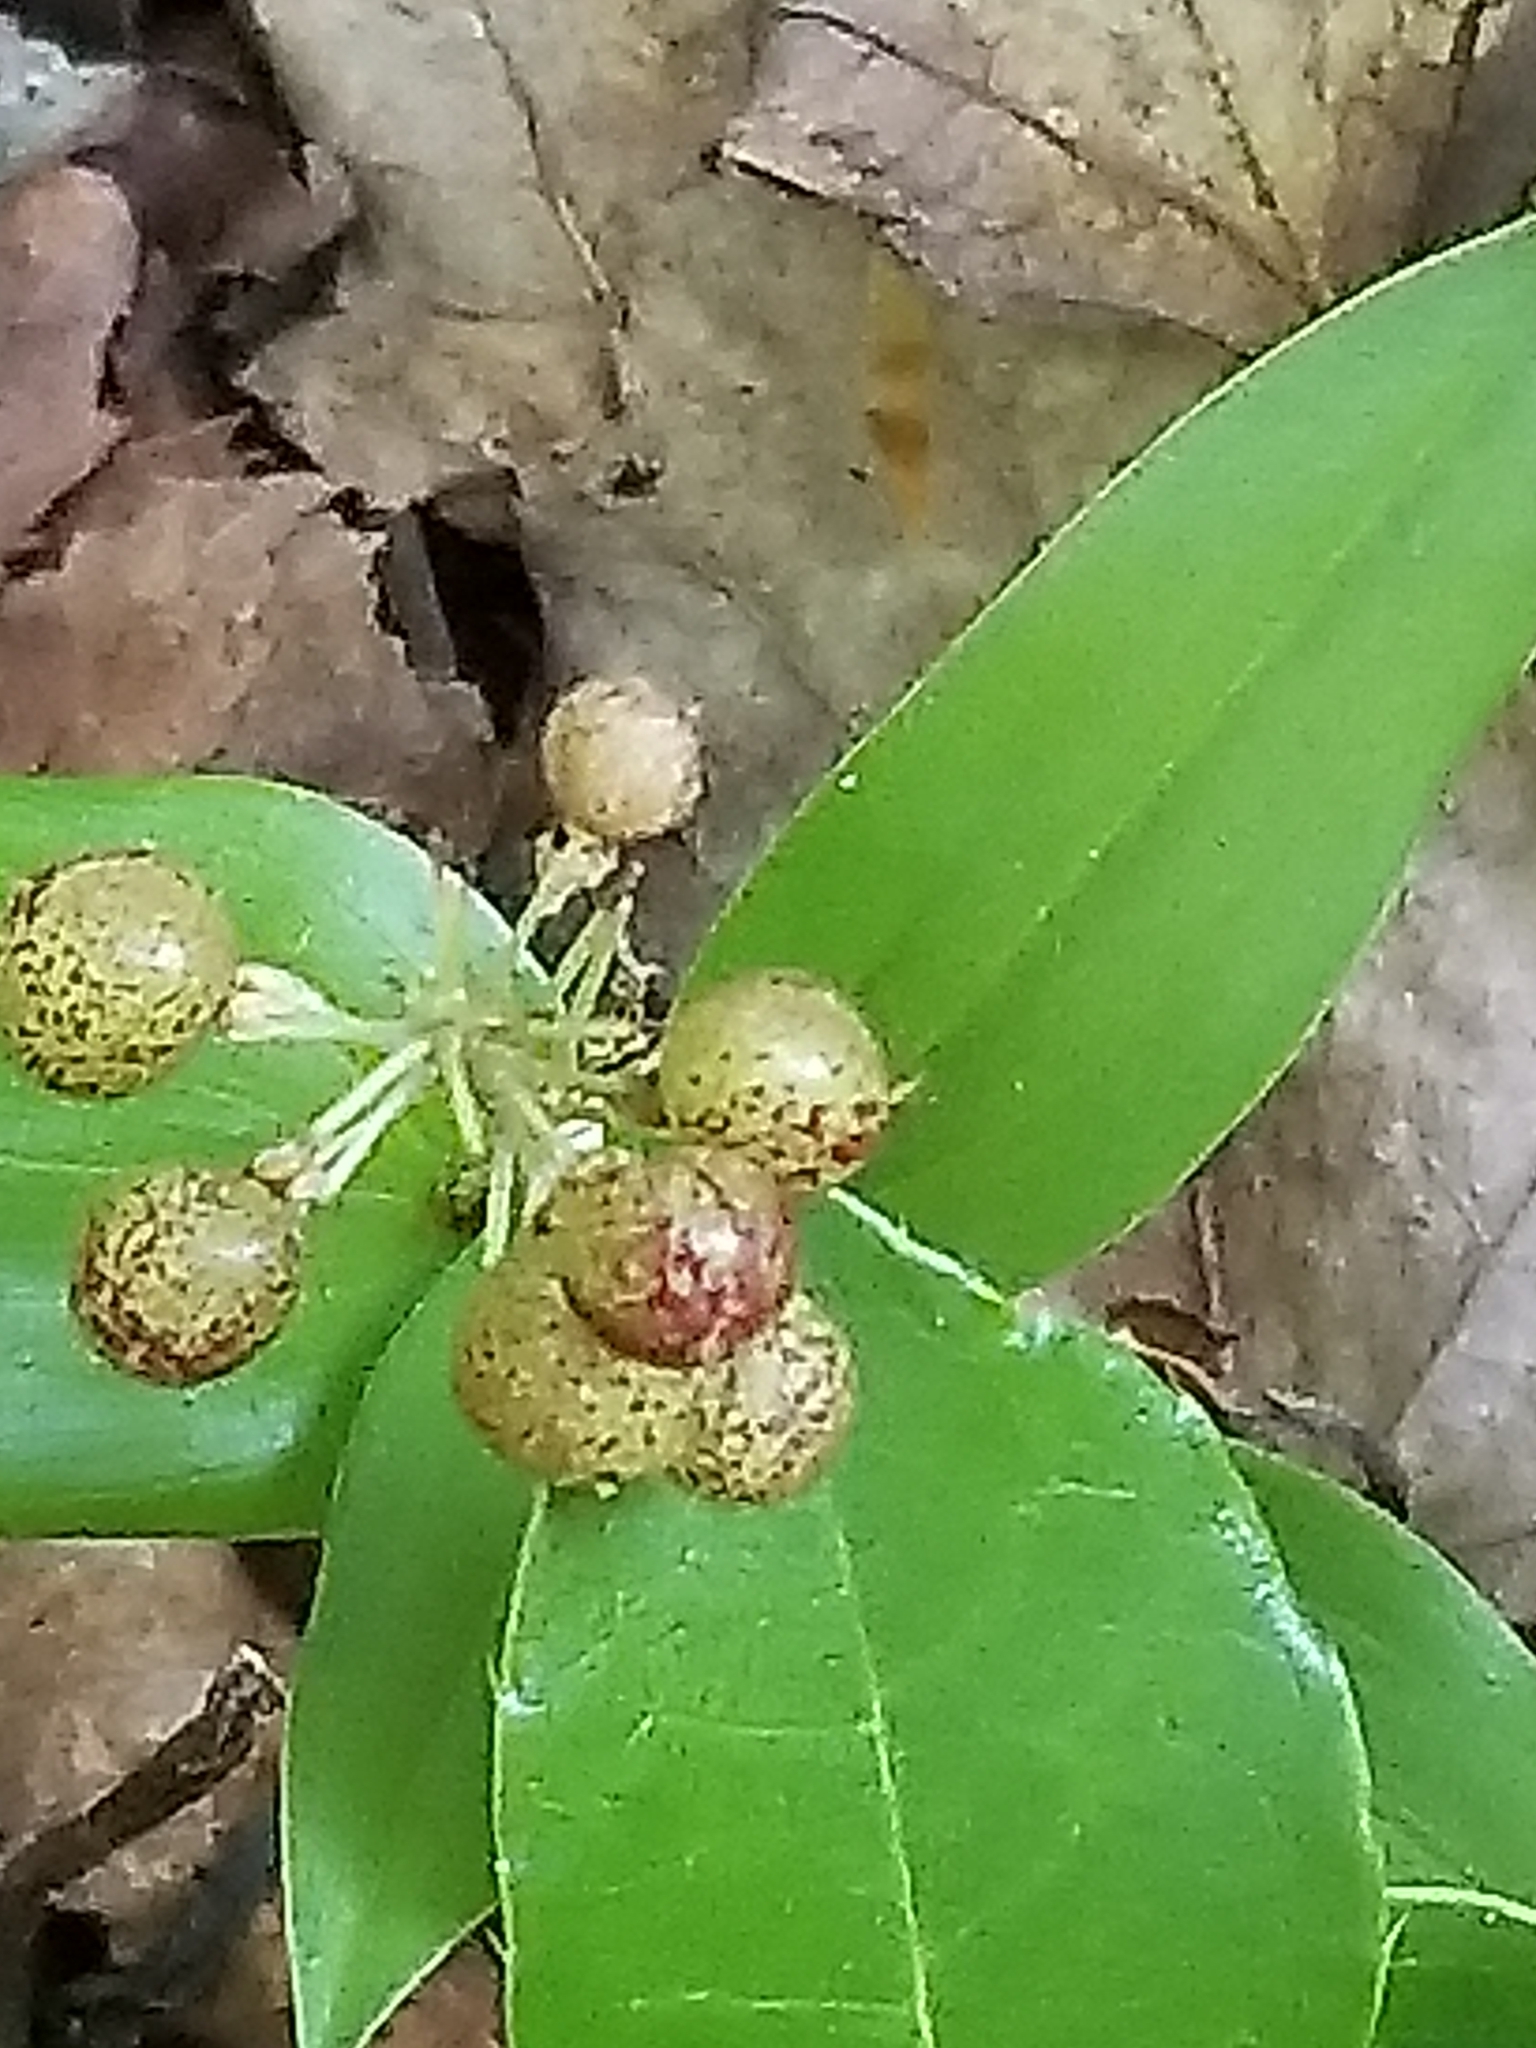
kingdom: Plantae
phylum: Tracheophyta
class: Liliopsida
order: Asparagales
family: Asparagaceae
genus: Maianthemum
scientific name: Maianthemum canadense
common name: False lily-of-the-valley
